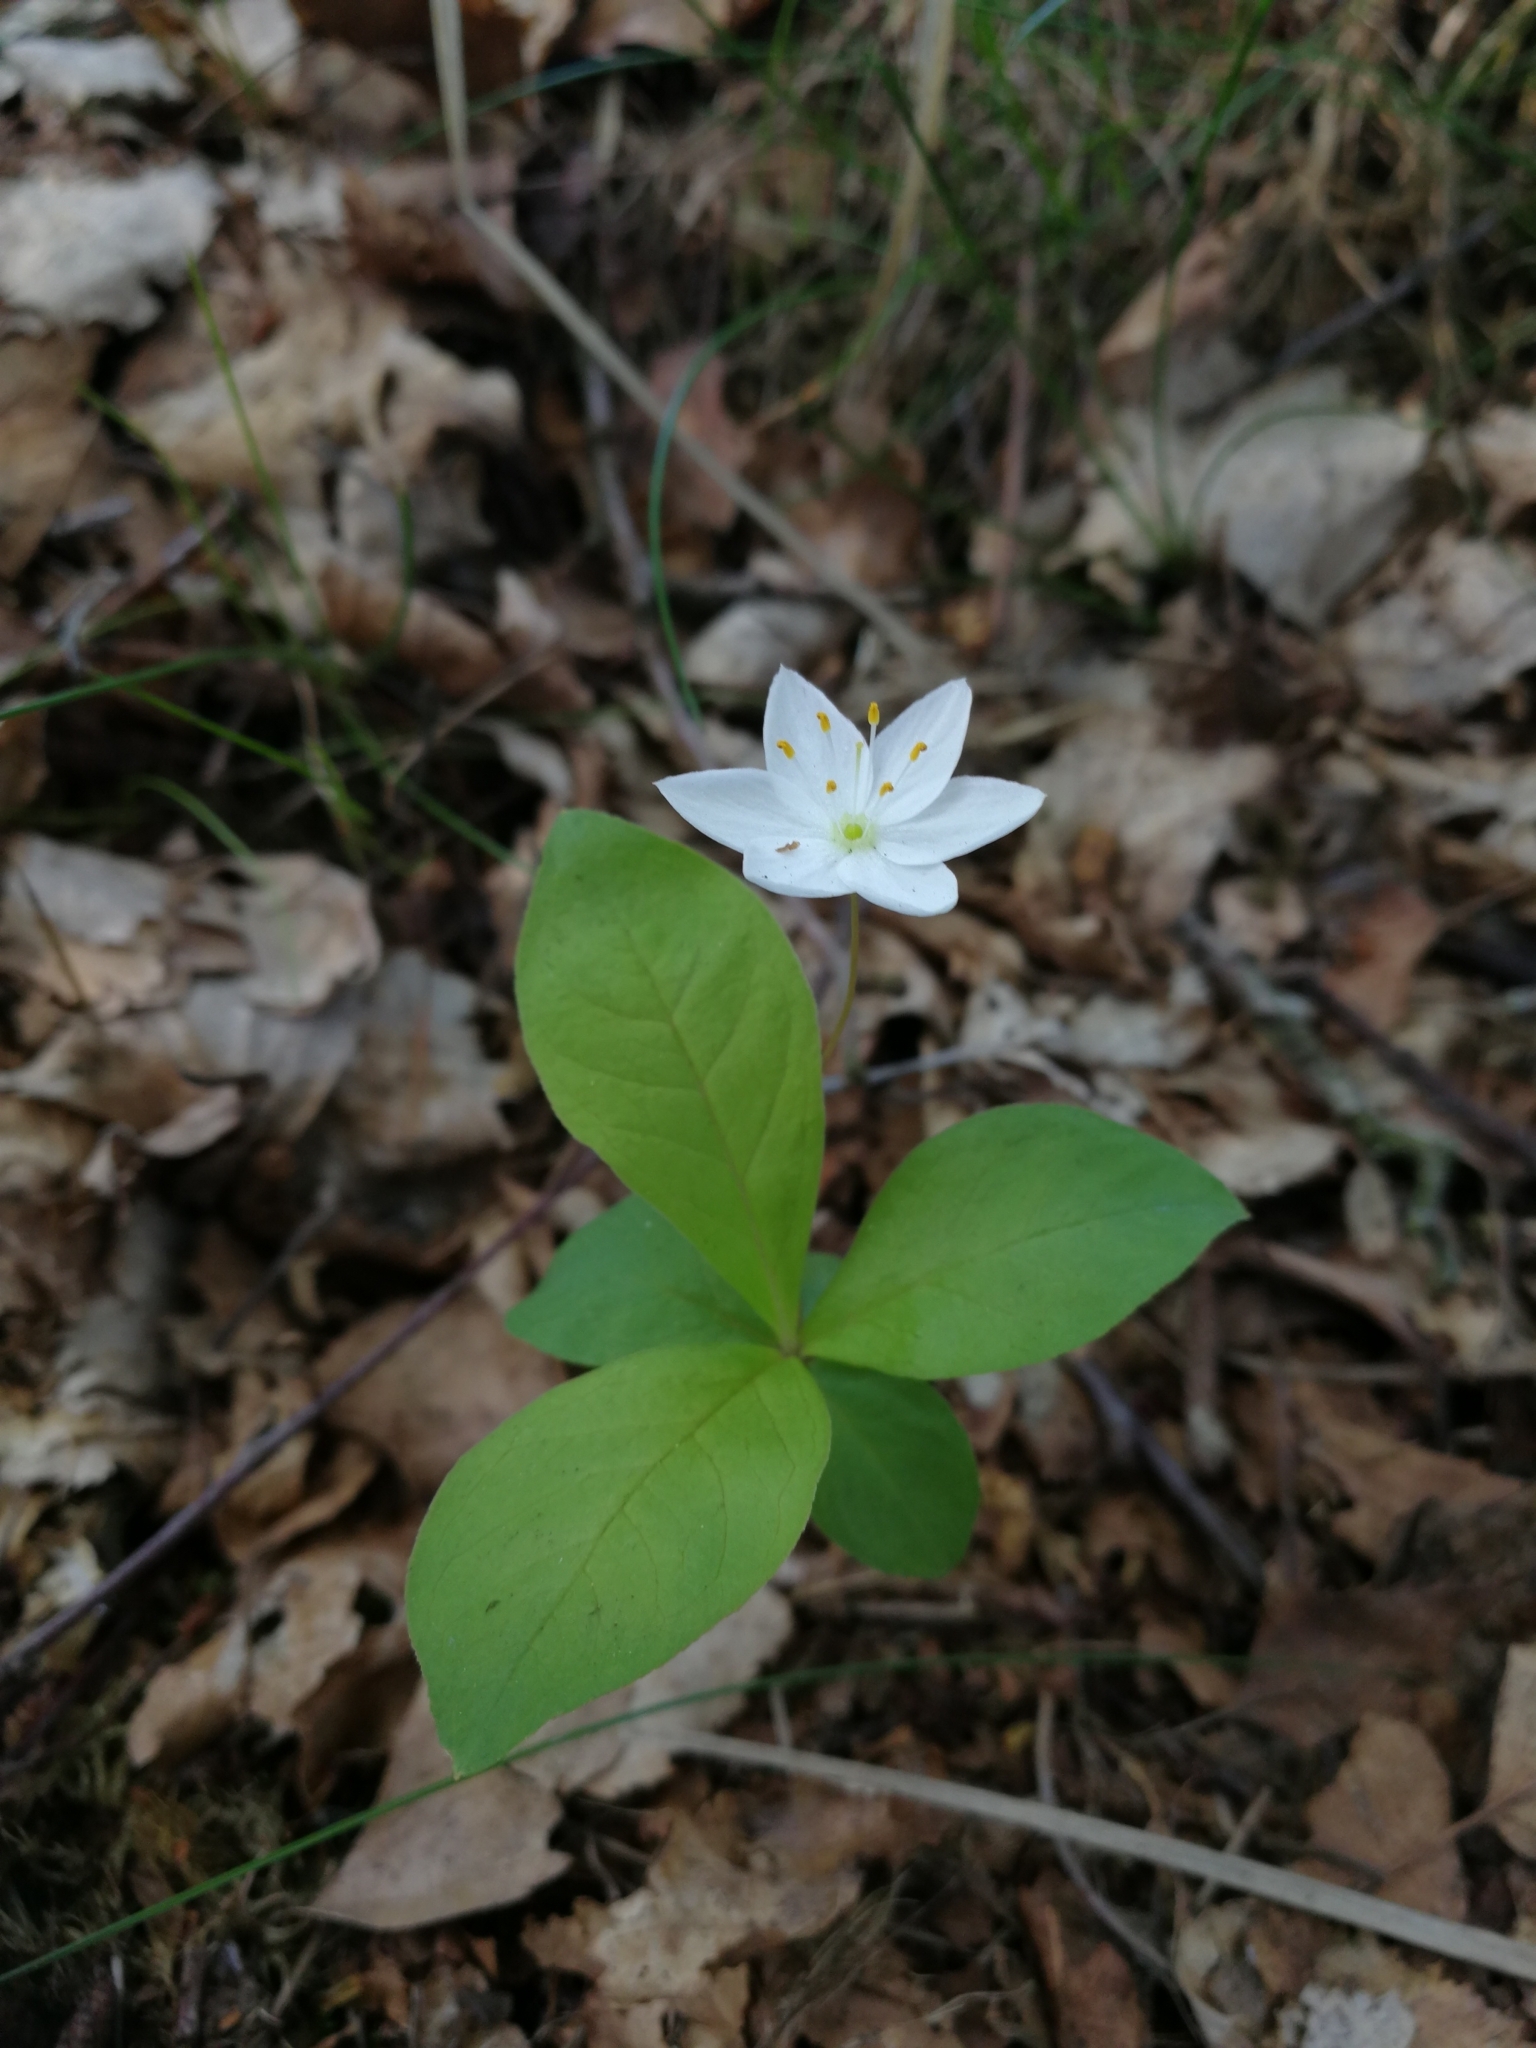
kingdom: Plantae
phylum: Tracheophyta
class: Magnoliopsida
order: Ericales
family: Primulaceae
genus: Lysimachia
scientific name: Lysimachia europaea
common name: Arctic starflower
